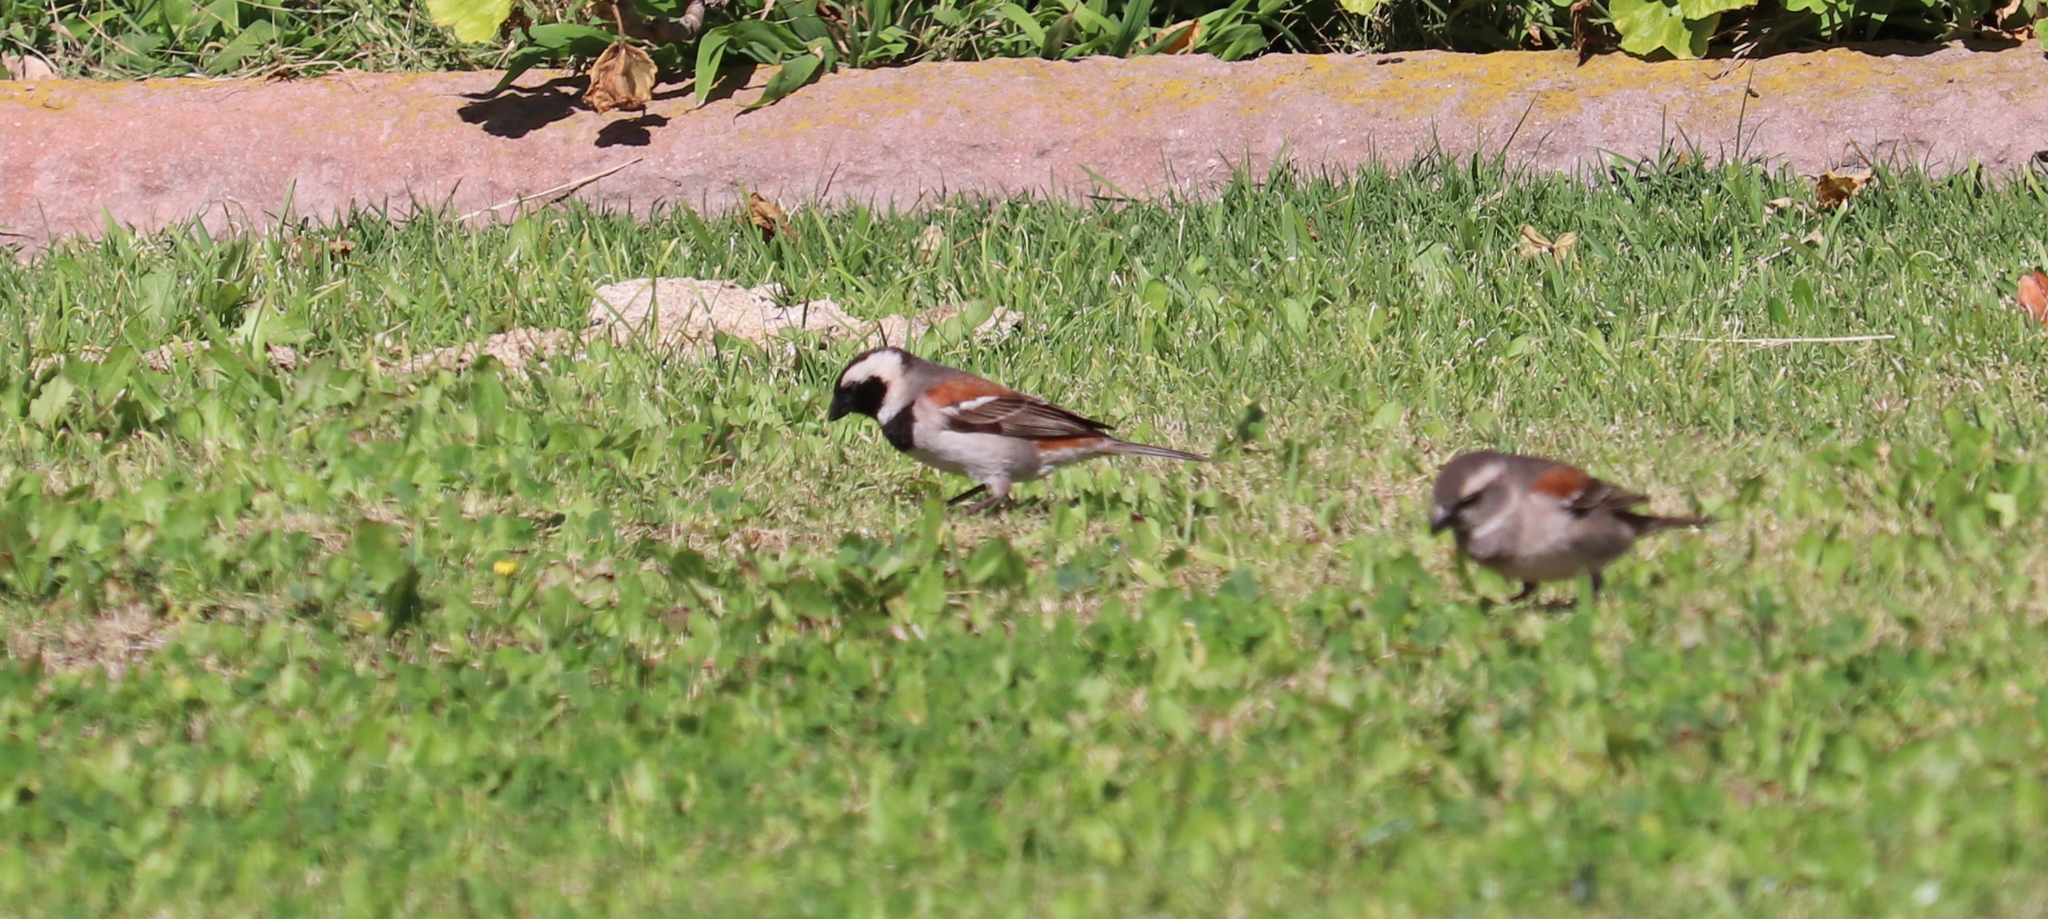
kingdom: Animalia
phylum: Chordata
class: Aves
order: Passeriformes
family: Passeridae
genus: Passer
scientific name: Passer melanurus
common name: Cape sparrow
